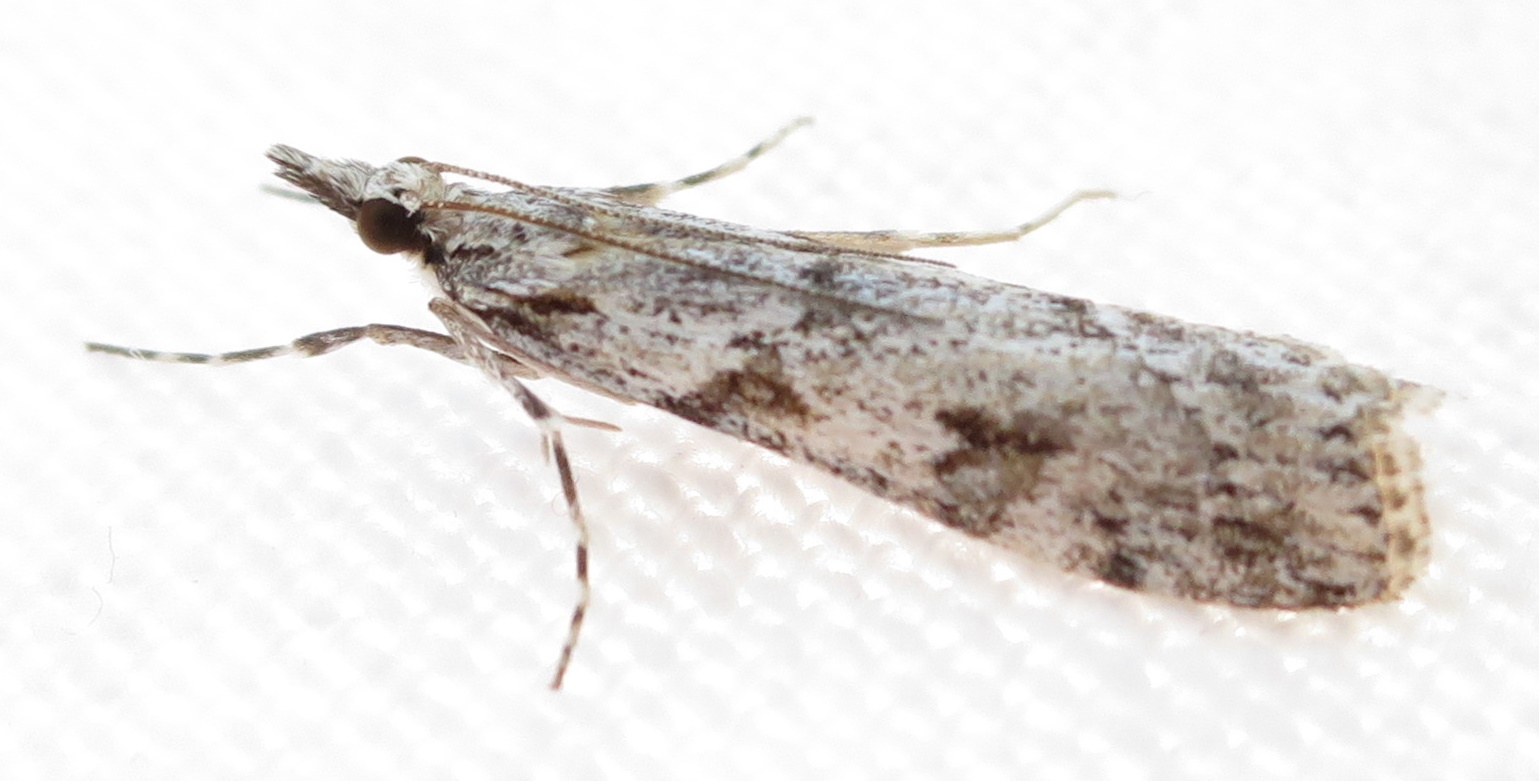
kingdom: Animalia
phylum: Arthropoda
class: Insecta
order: Lepidoptera
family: Crambidae
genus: Scoparia
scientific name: Scoparia halopis
